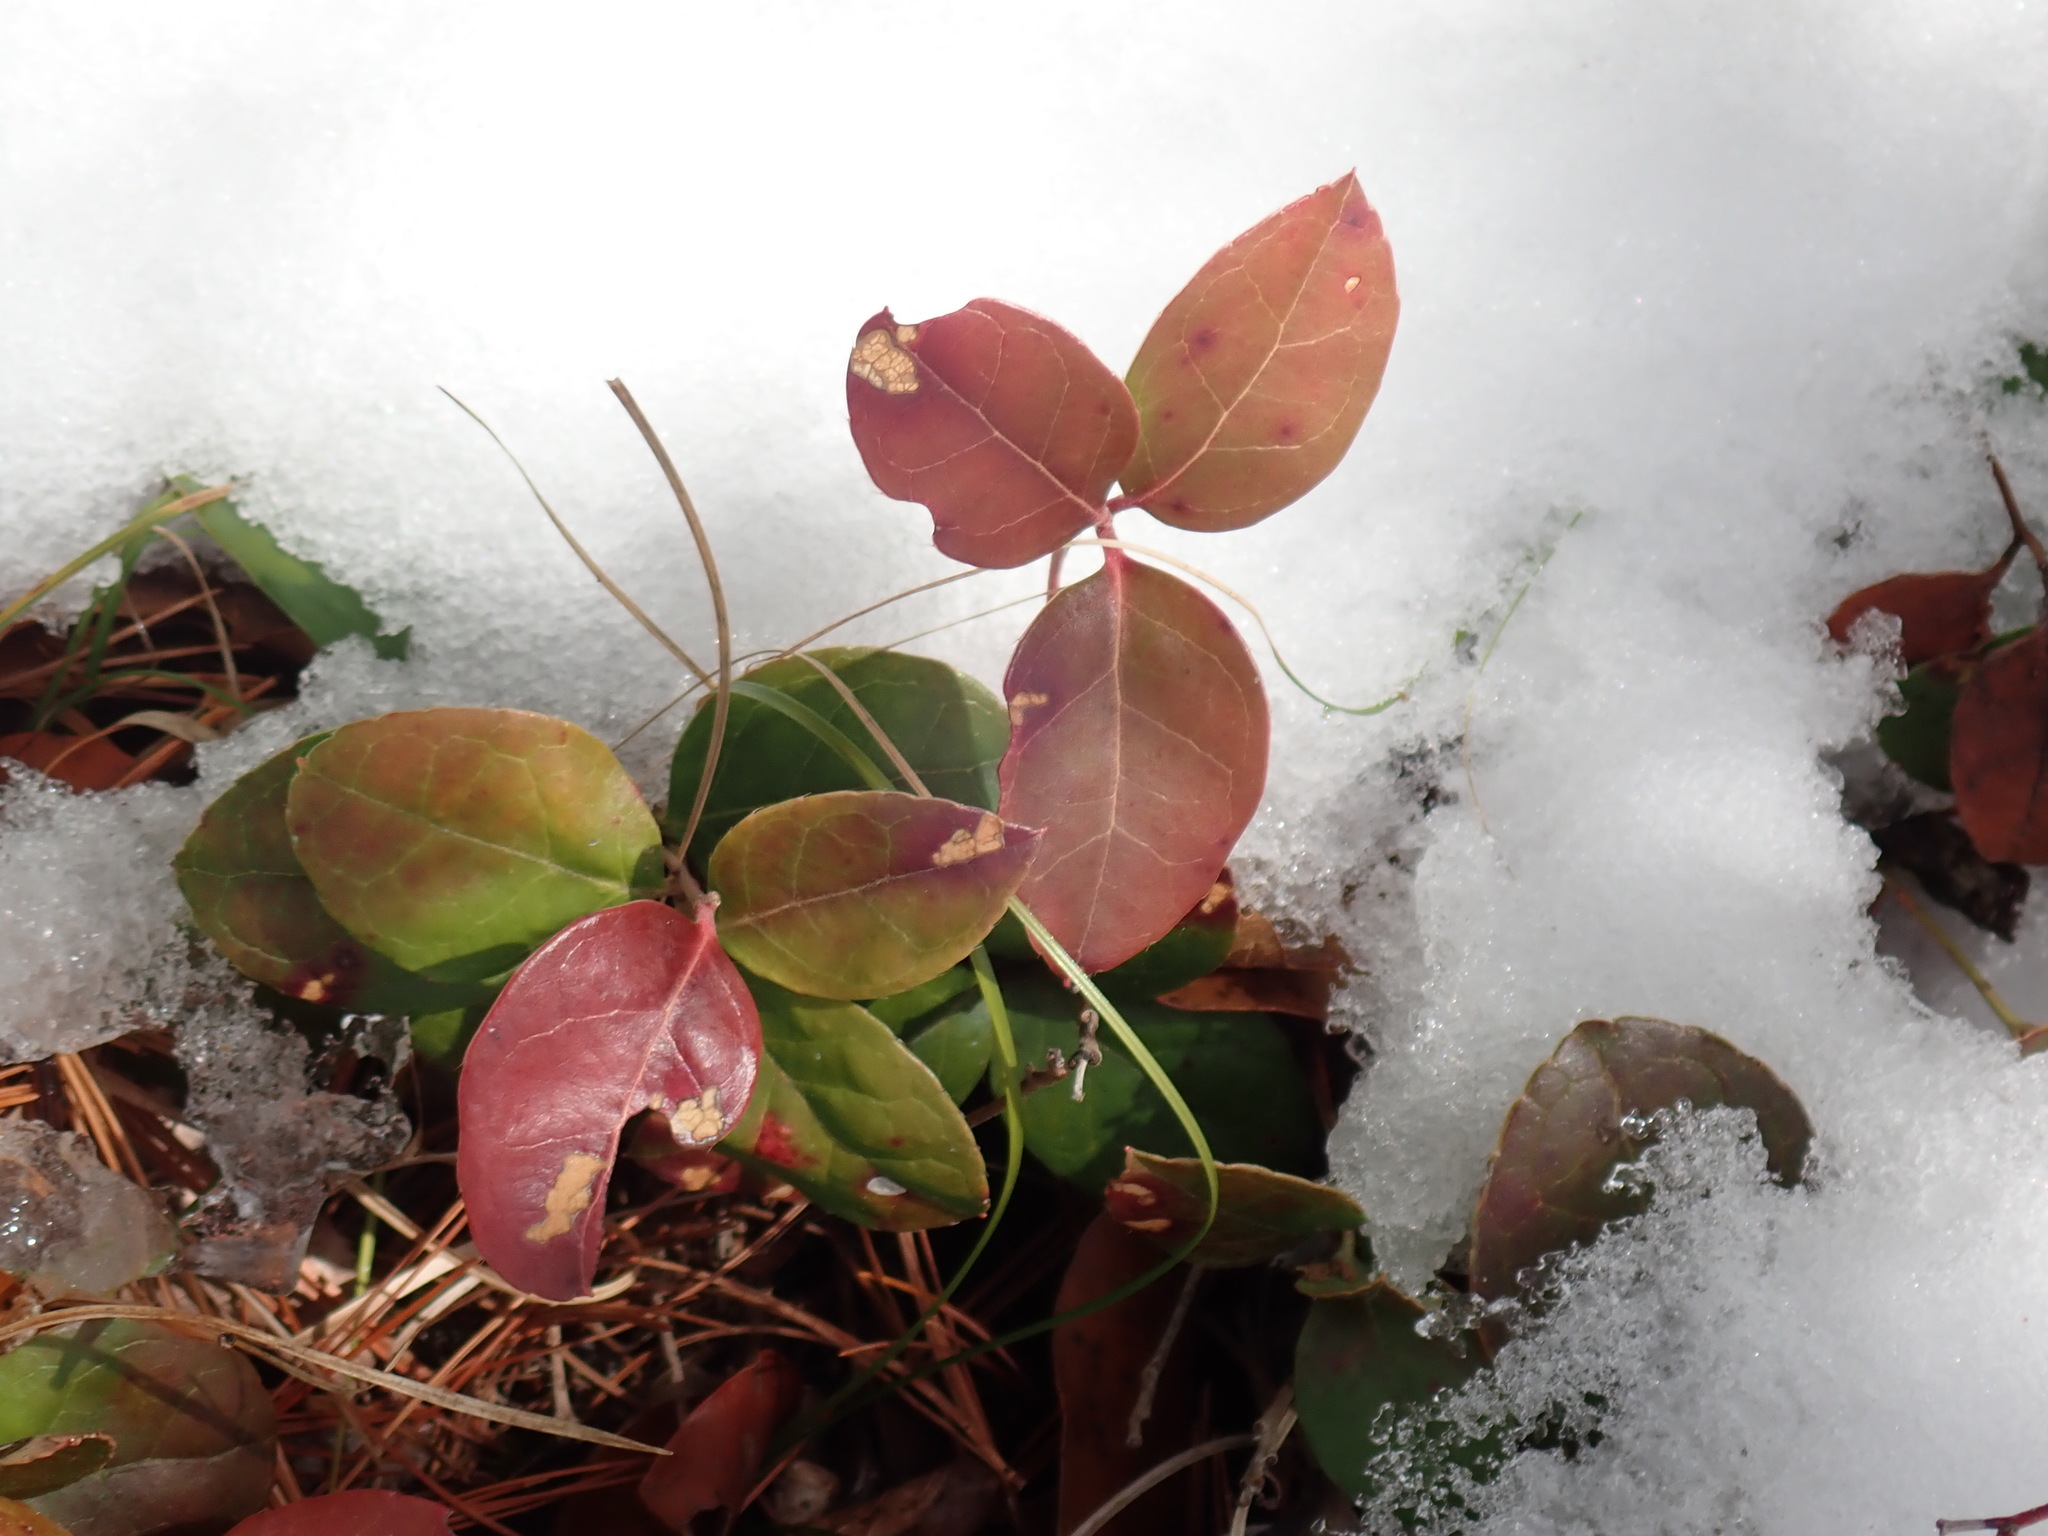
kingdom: Plantae
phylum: Tracheophyta
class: Magnoliopsida
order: Ericales
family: Ericaceae
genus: Gaultheria
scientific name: Gaultheria procumbens
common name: Checkerberry
